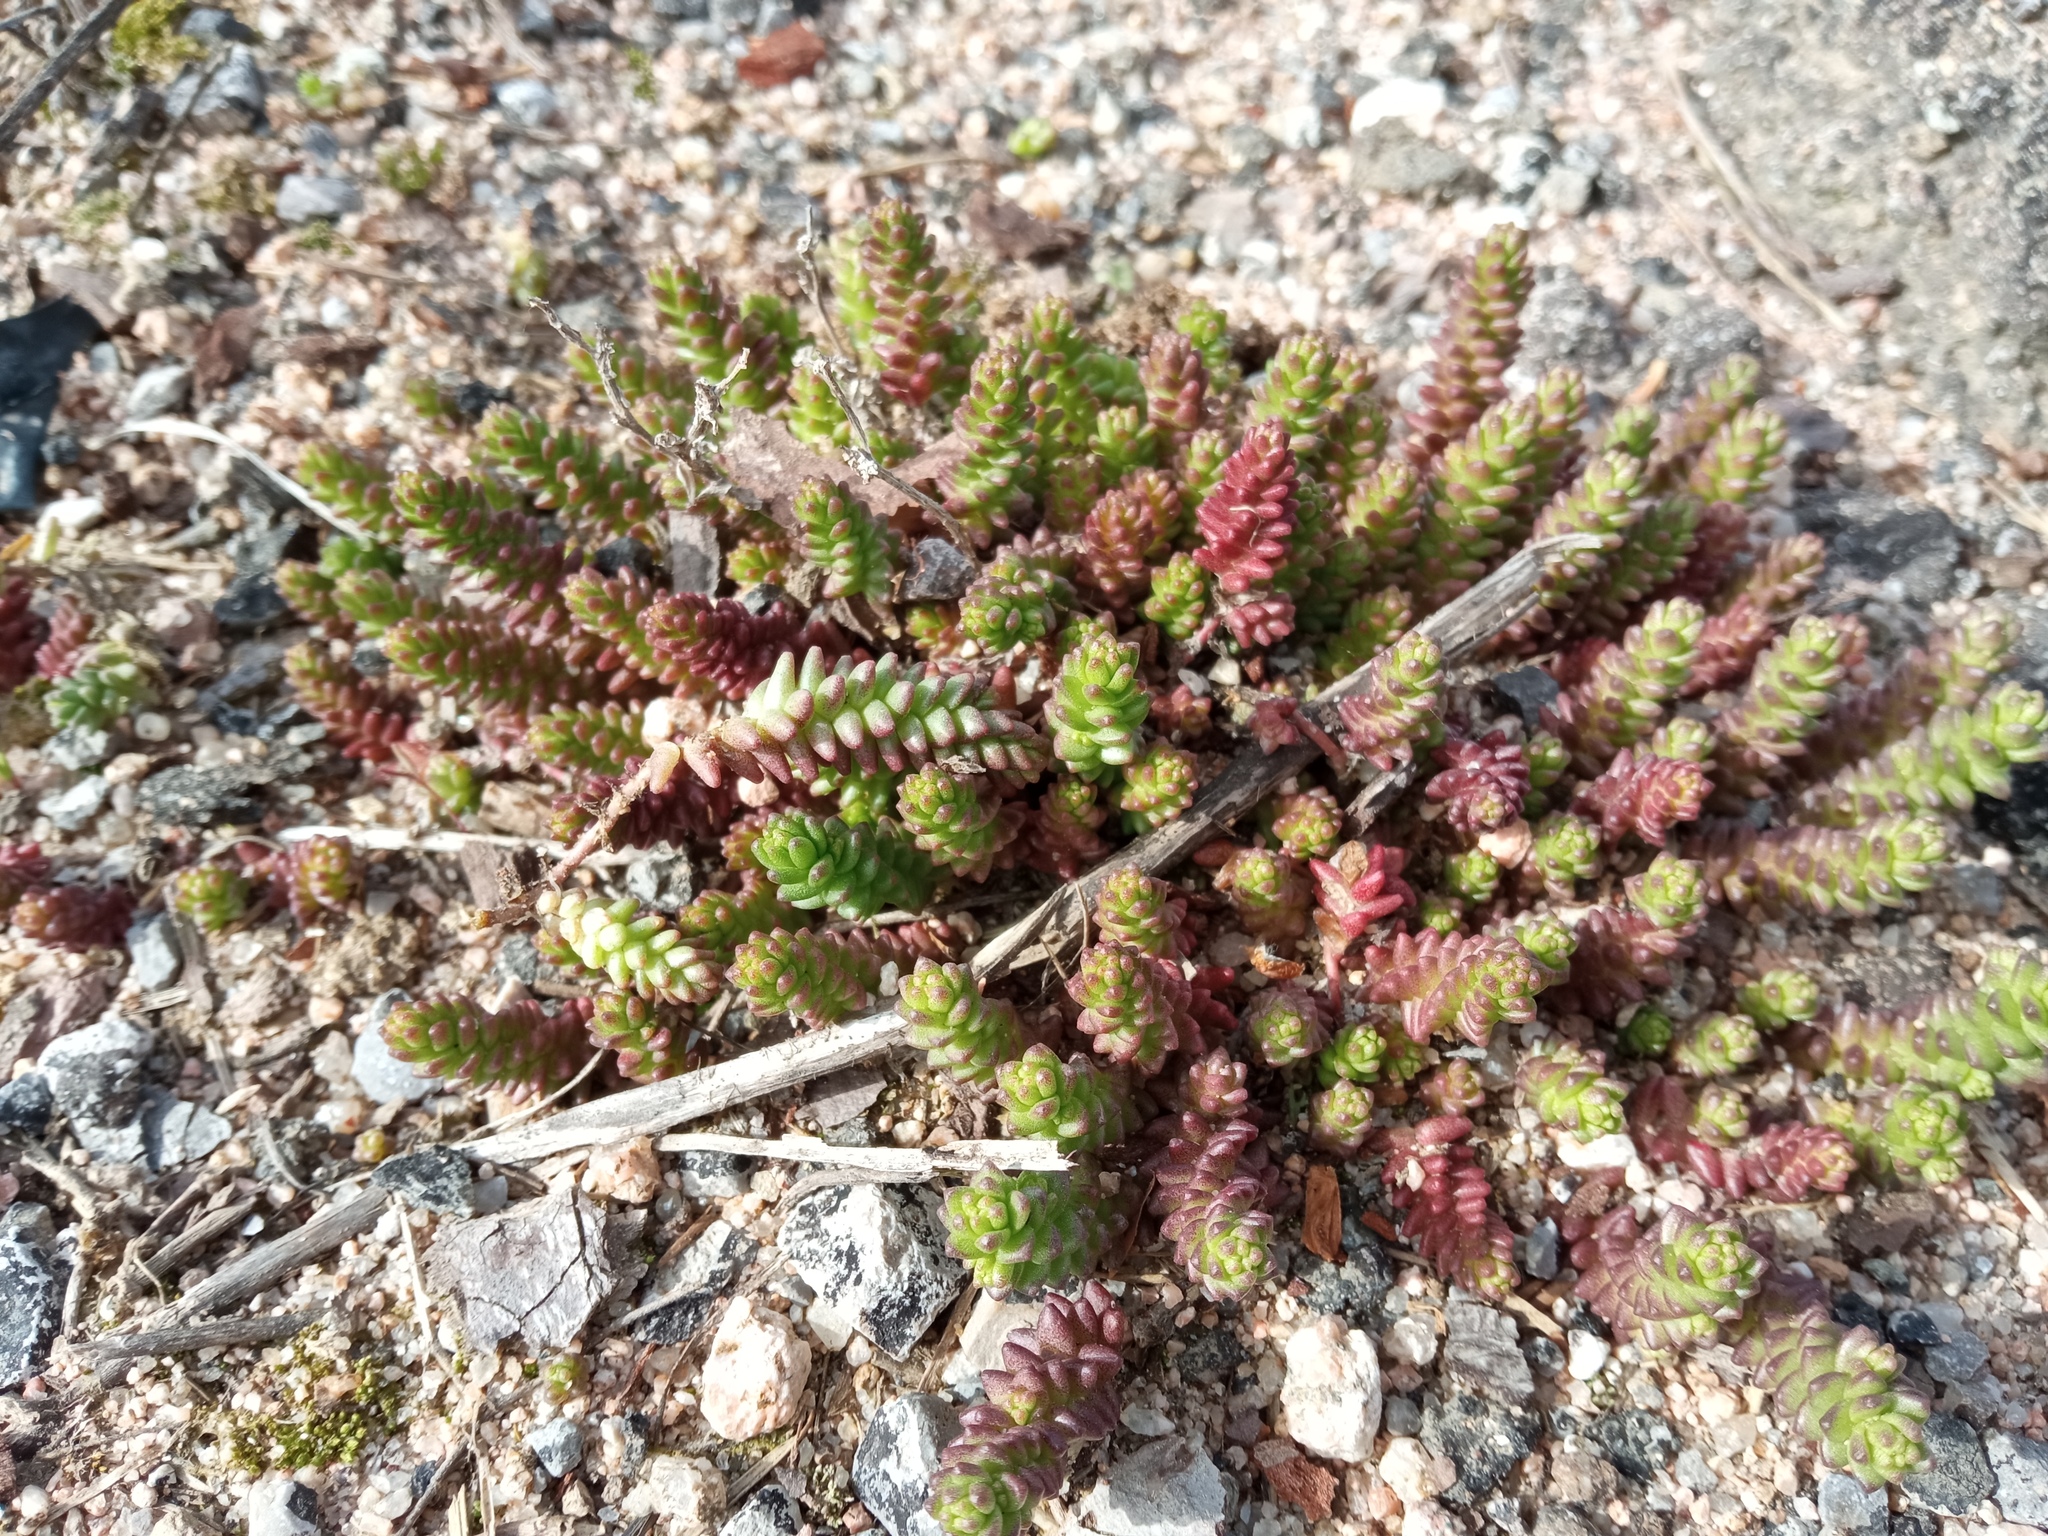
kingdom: Plantae
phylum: Tracheophyta
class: Magnoliopsida
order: Saxifragales
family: Crassulaceae
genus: Sedum
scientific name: Sedum acre
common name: Biting stonecrop
